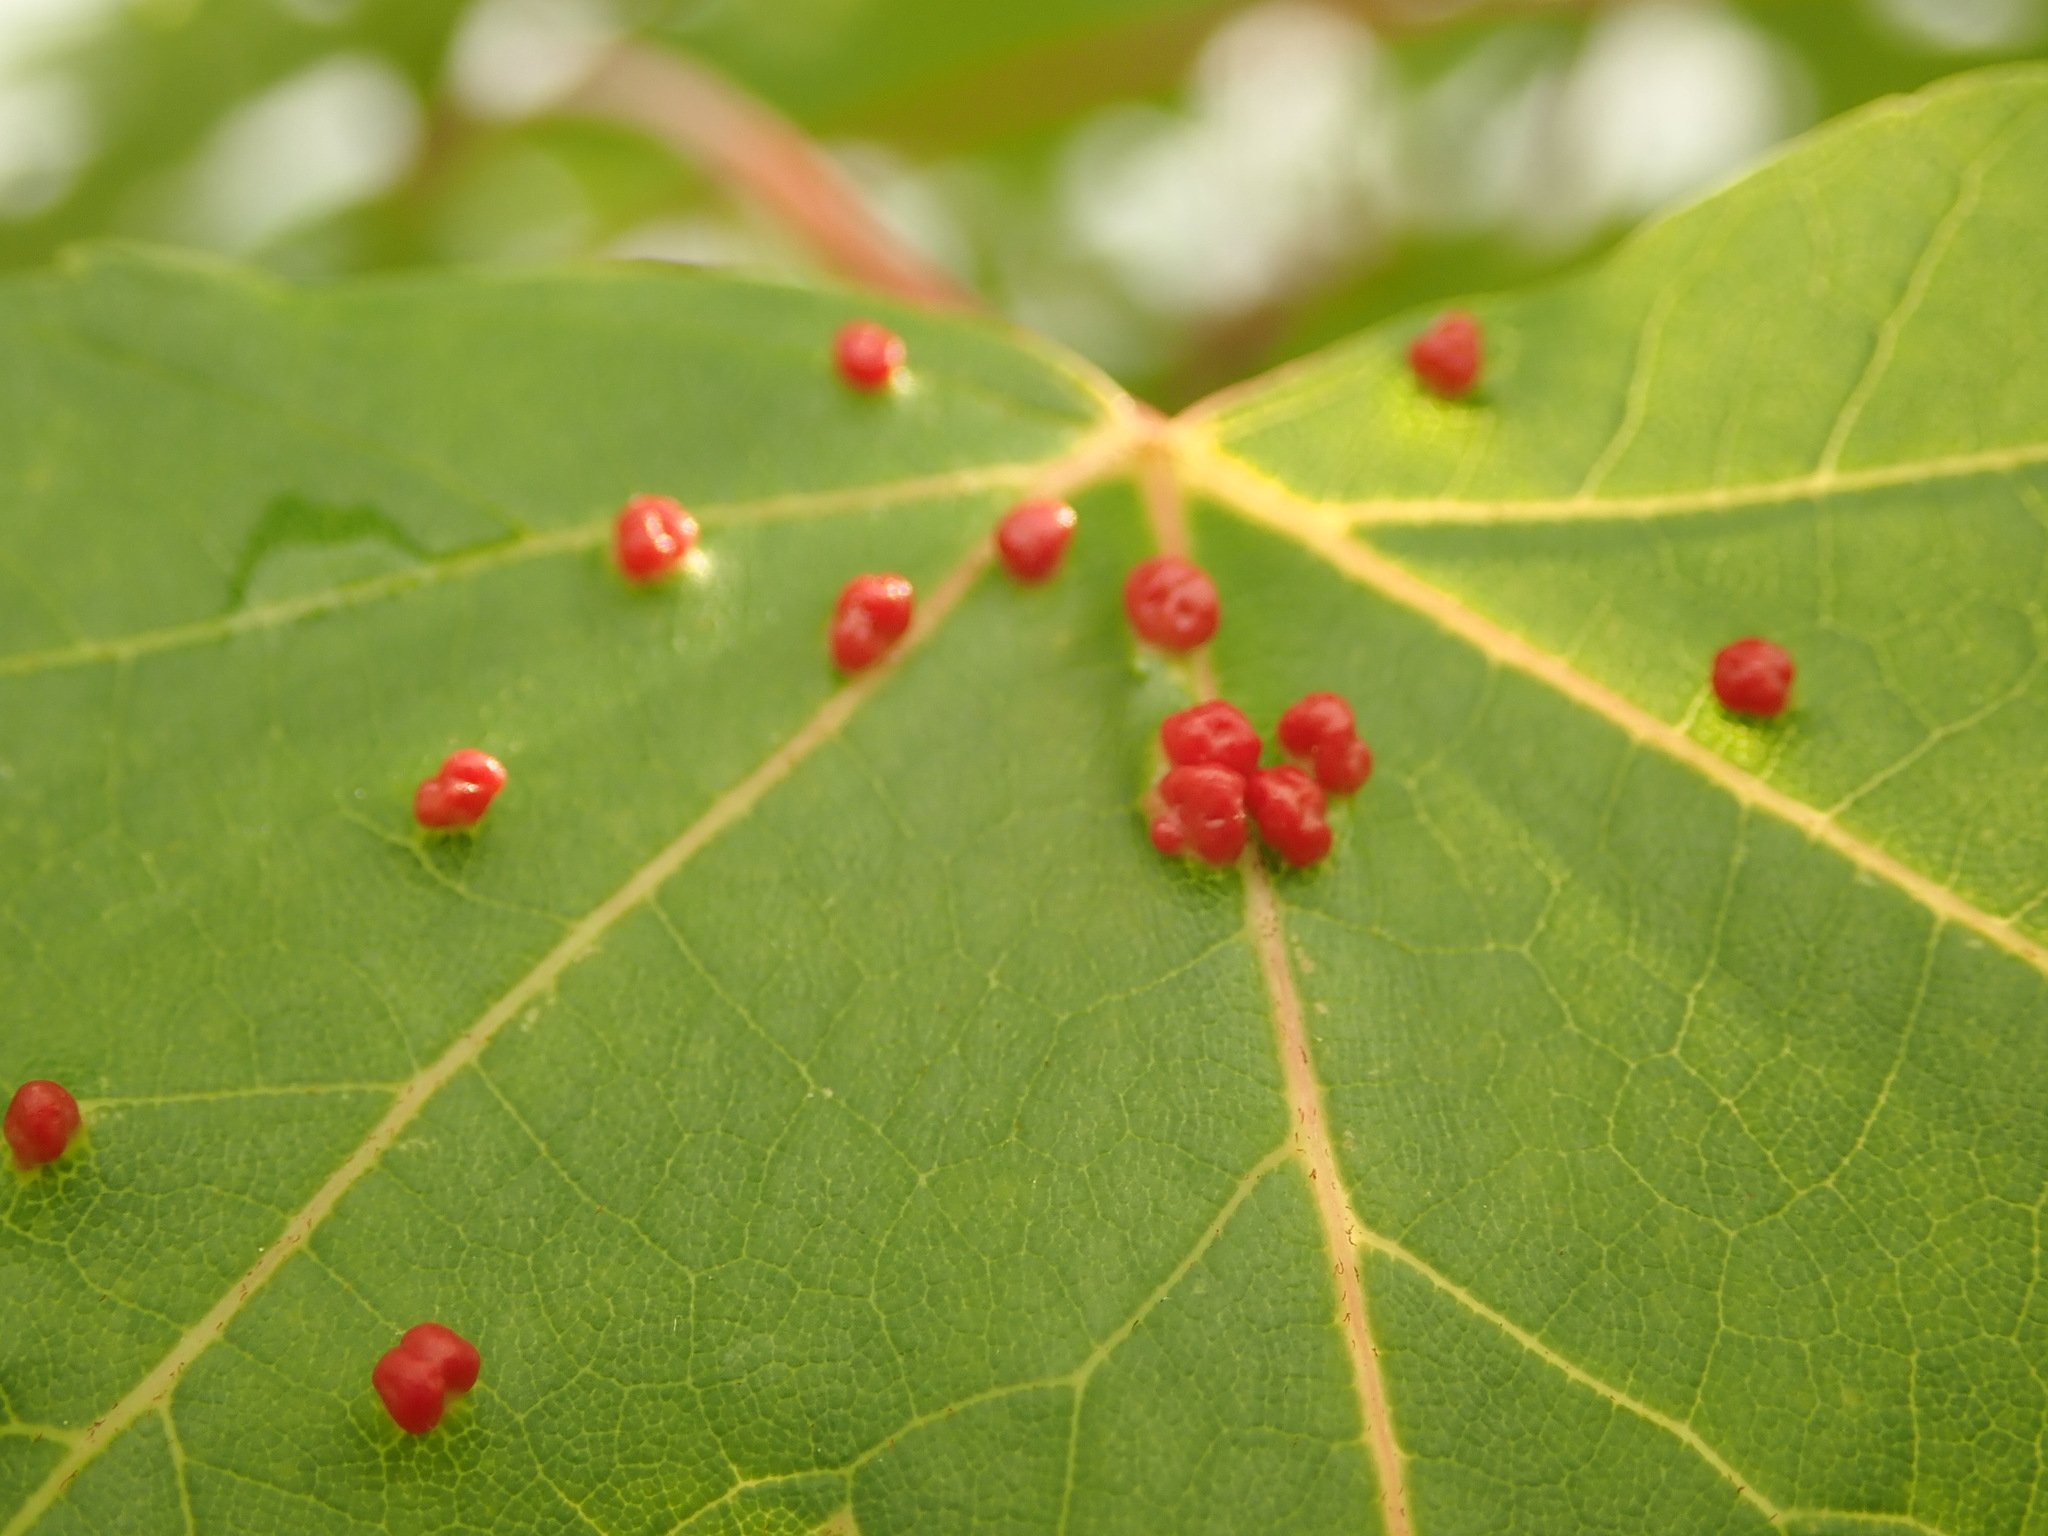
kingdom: Animalia
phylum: Arthropoda
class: Arachnida
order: Trombidiformes
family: Eriophyidae
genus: Vasates
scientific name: Vasates quadripedes
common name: Maple bladder gall mite
